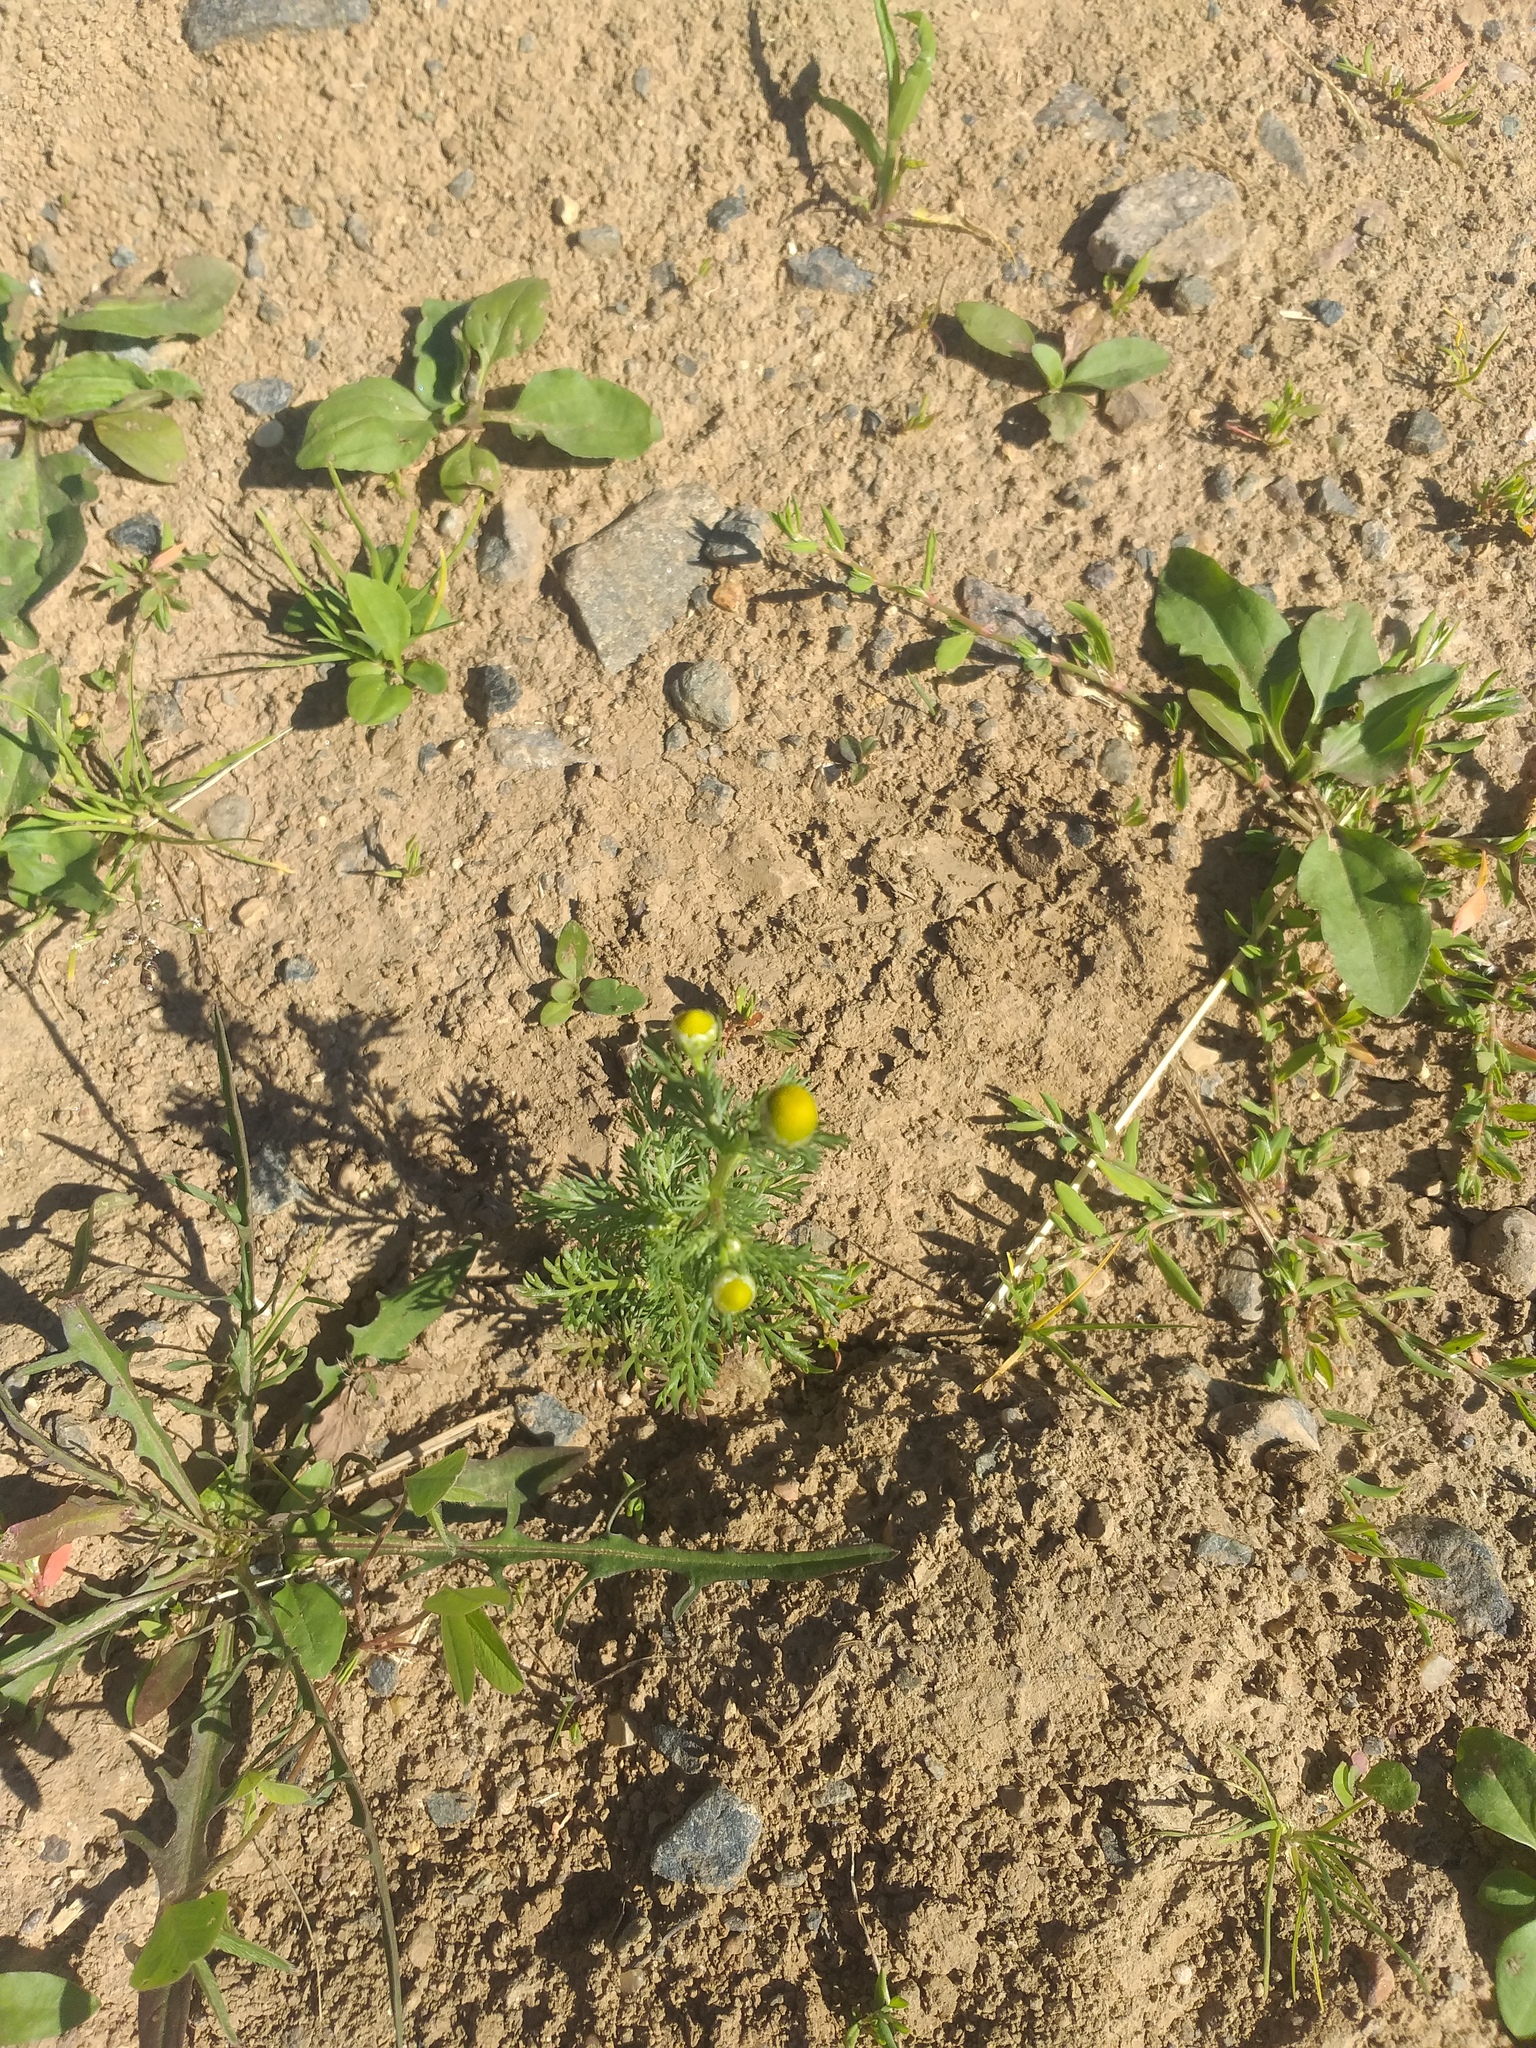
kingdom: Plantae
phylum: Tracheophyta
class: Magnoliopsida
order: Asterales
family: Asteraceae
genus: Matricaria
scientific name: Matricaria discoidea
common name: Disc mayweed
